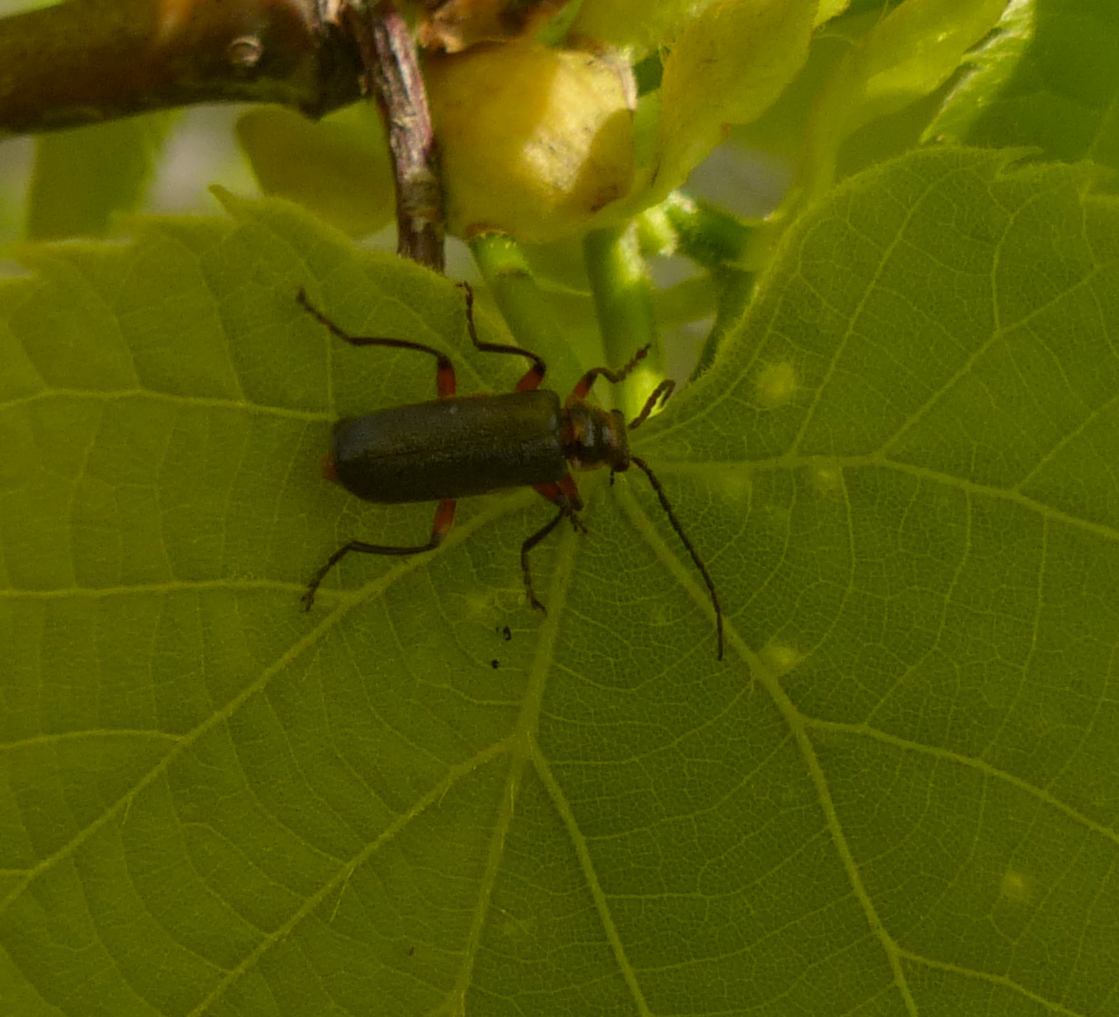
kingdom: Animalia
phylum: Arthropoda
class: Insecta
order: Coleoptera
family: Cantharidae
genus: Atalantycha
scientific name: Atalantycha bilineata
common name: Two-lined leatherwing
